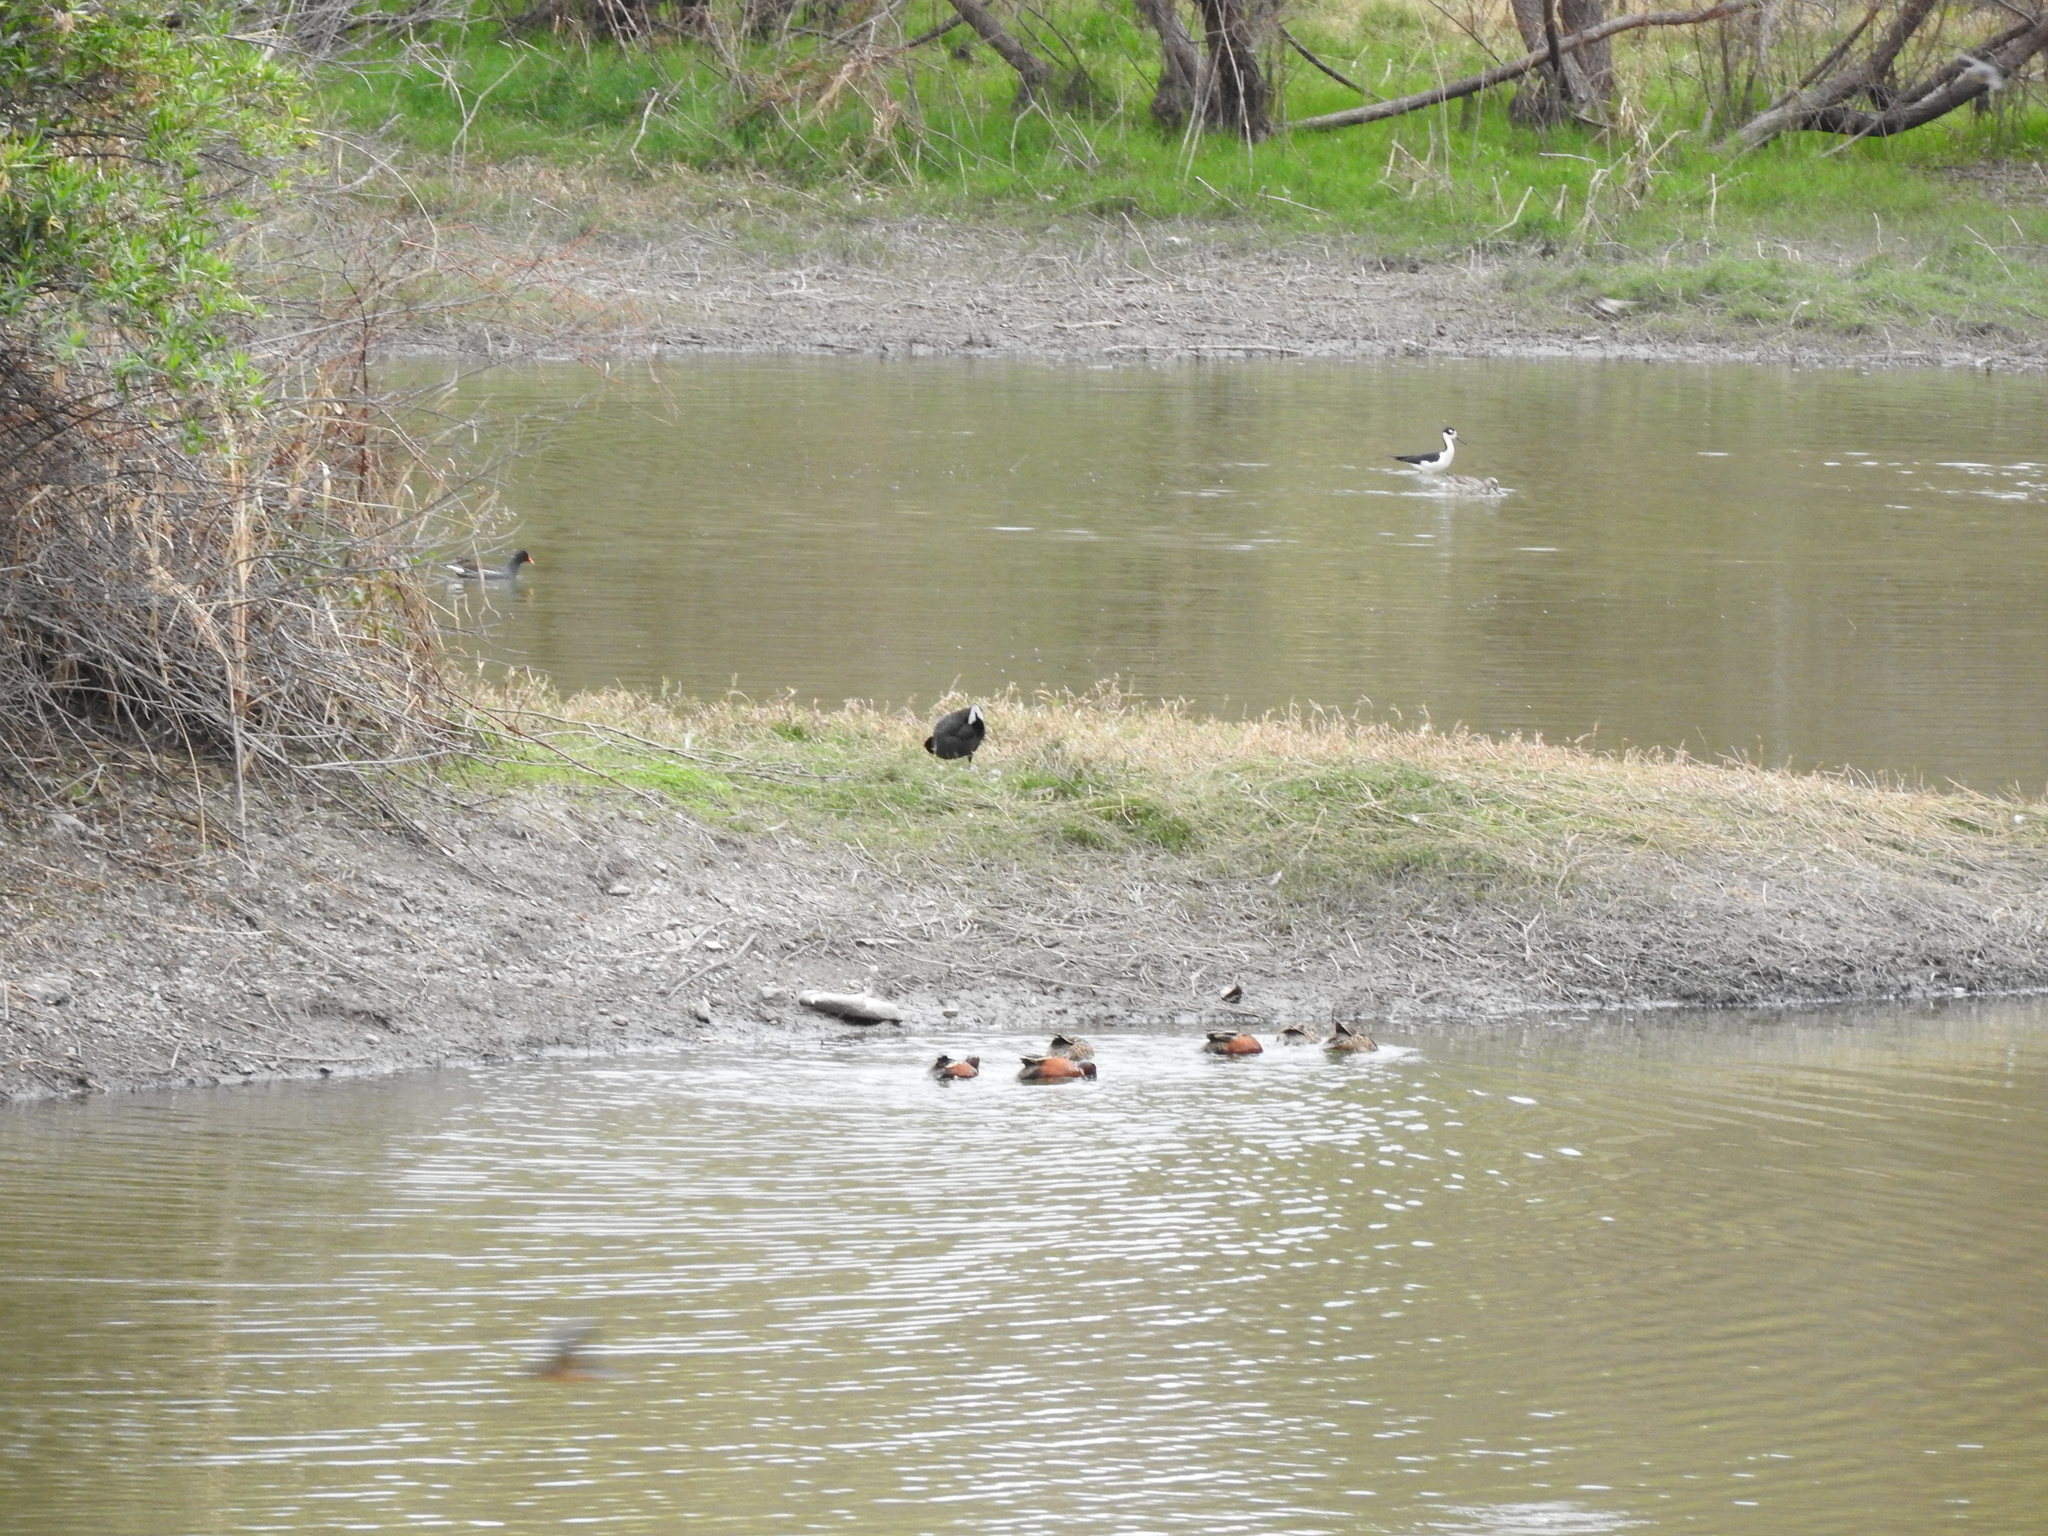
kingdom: Animalia
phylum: Chordata
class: Aves
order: Anseriformes
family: Anatidae
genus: Spatula
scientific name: Spatula cyanoptera
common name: Cinnamon teal
